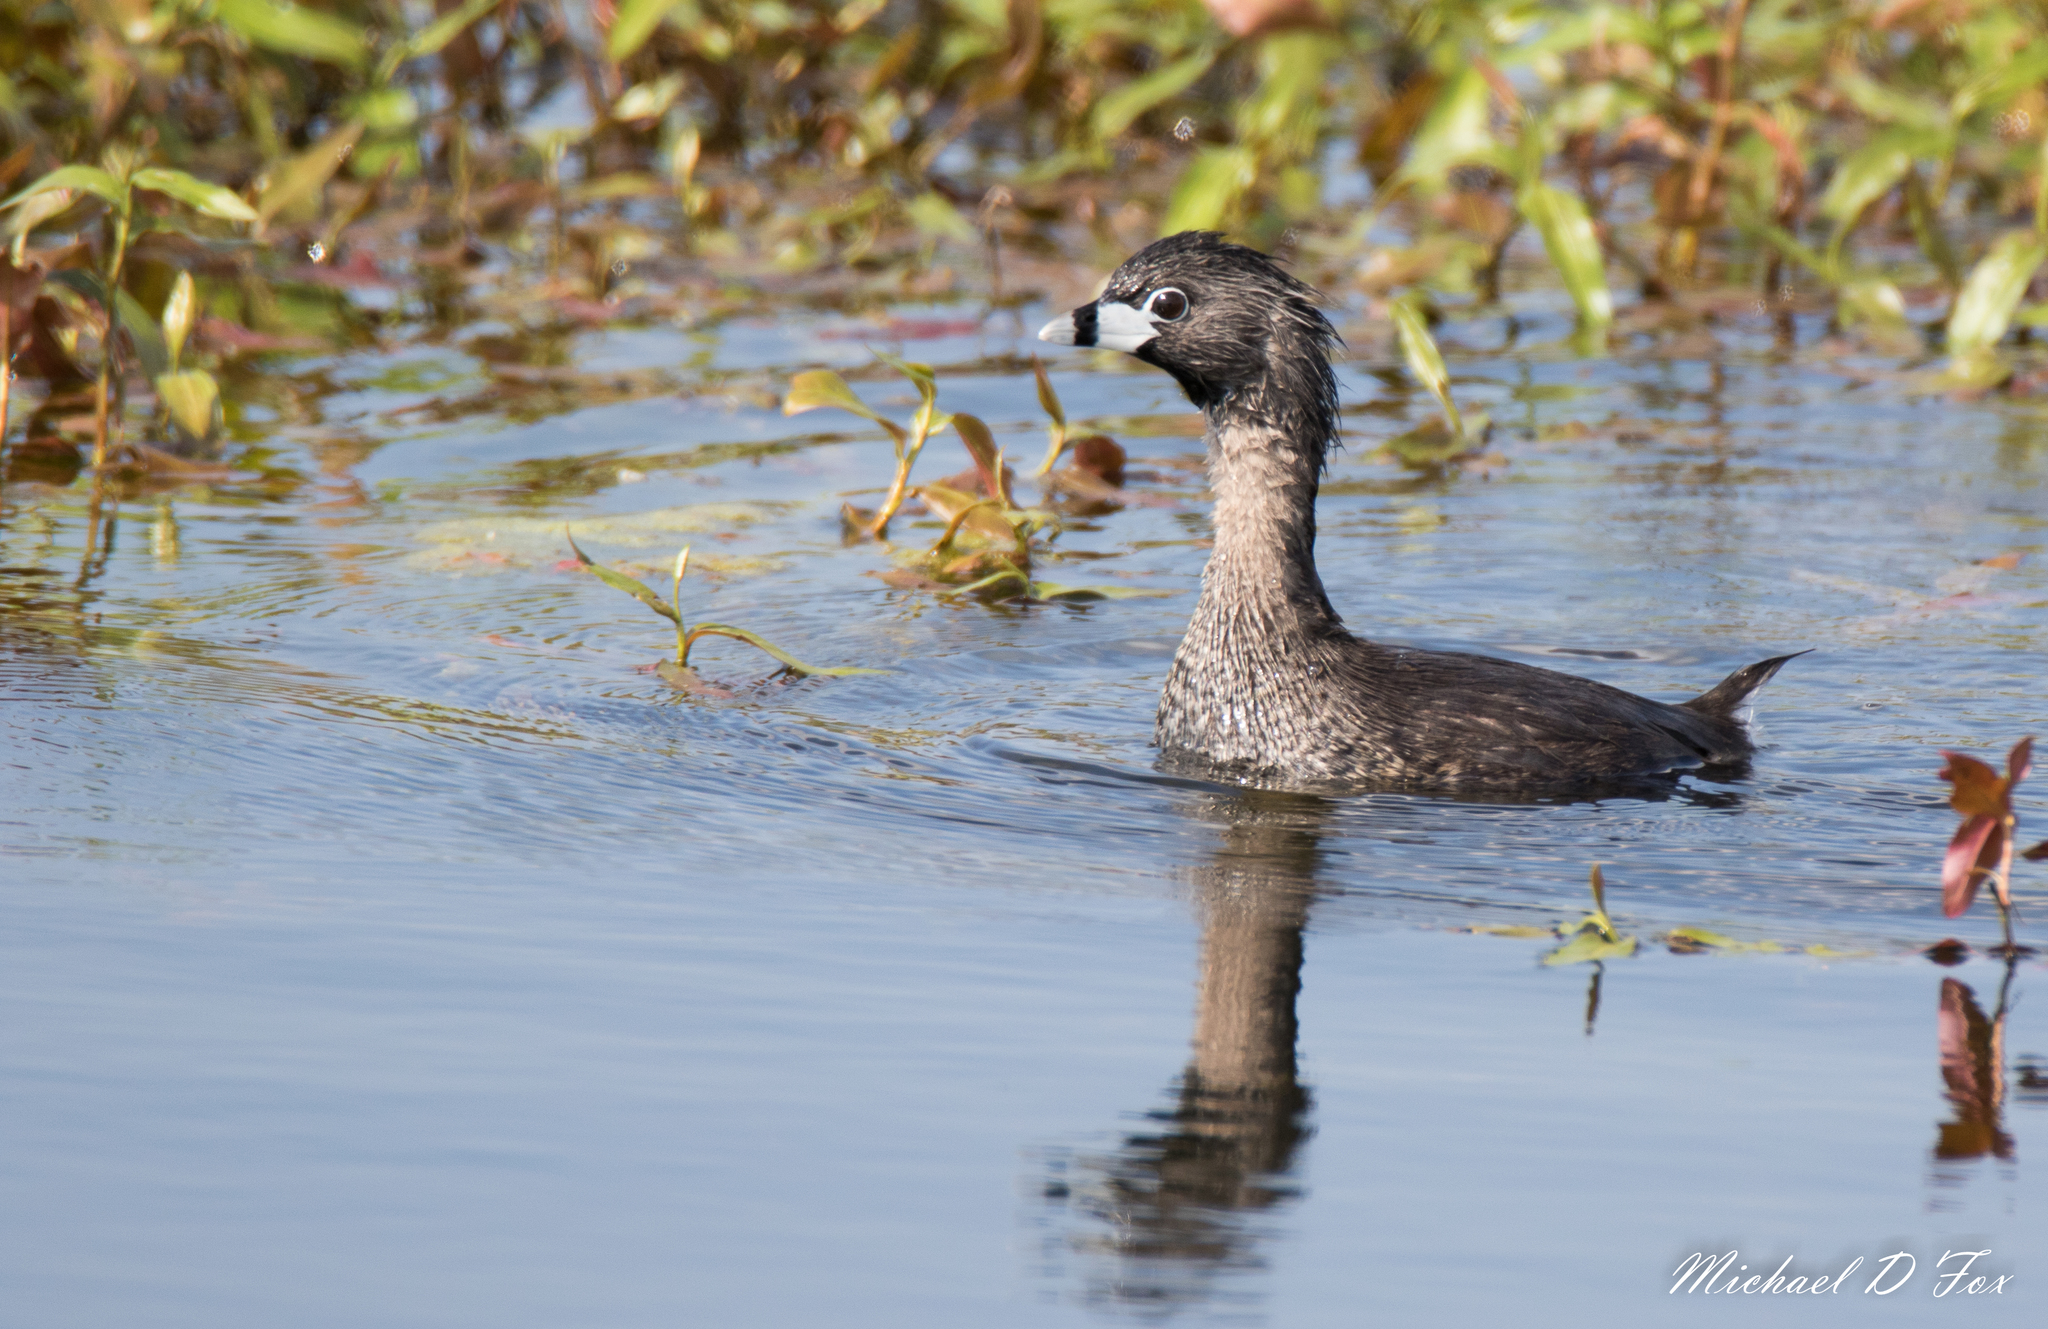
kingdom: Animalia
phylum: Chordata
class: Aves
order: Podicipediformes
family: Podicipedidae
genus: Podilymbus
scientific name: Podilymbus podiceps
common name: Pied-billed grebe
